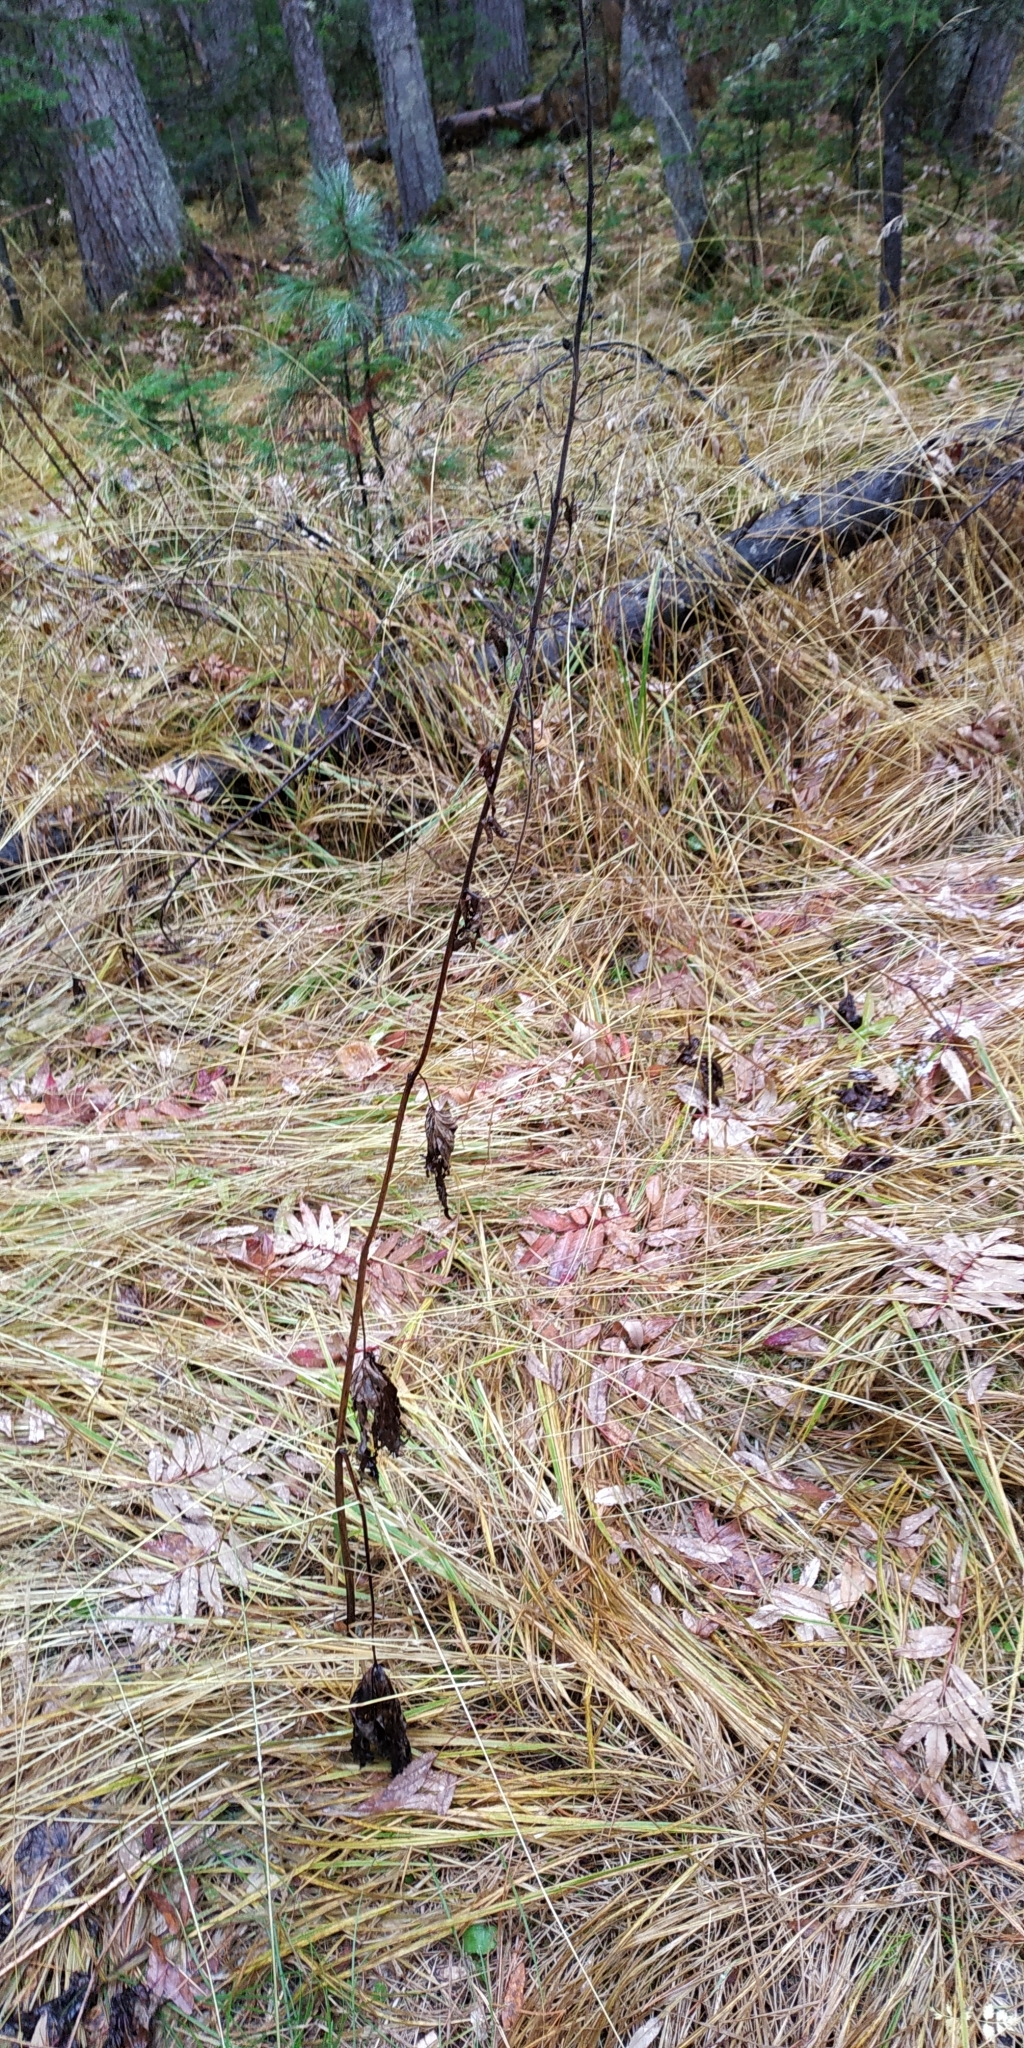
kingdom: Plantae
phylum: Tracheophyta
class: Magnoliopsida
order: Ranunculales
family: Ranunculaceae
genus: Aconitum
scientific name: Aconitum septentrionale
